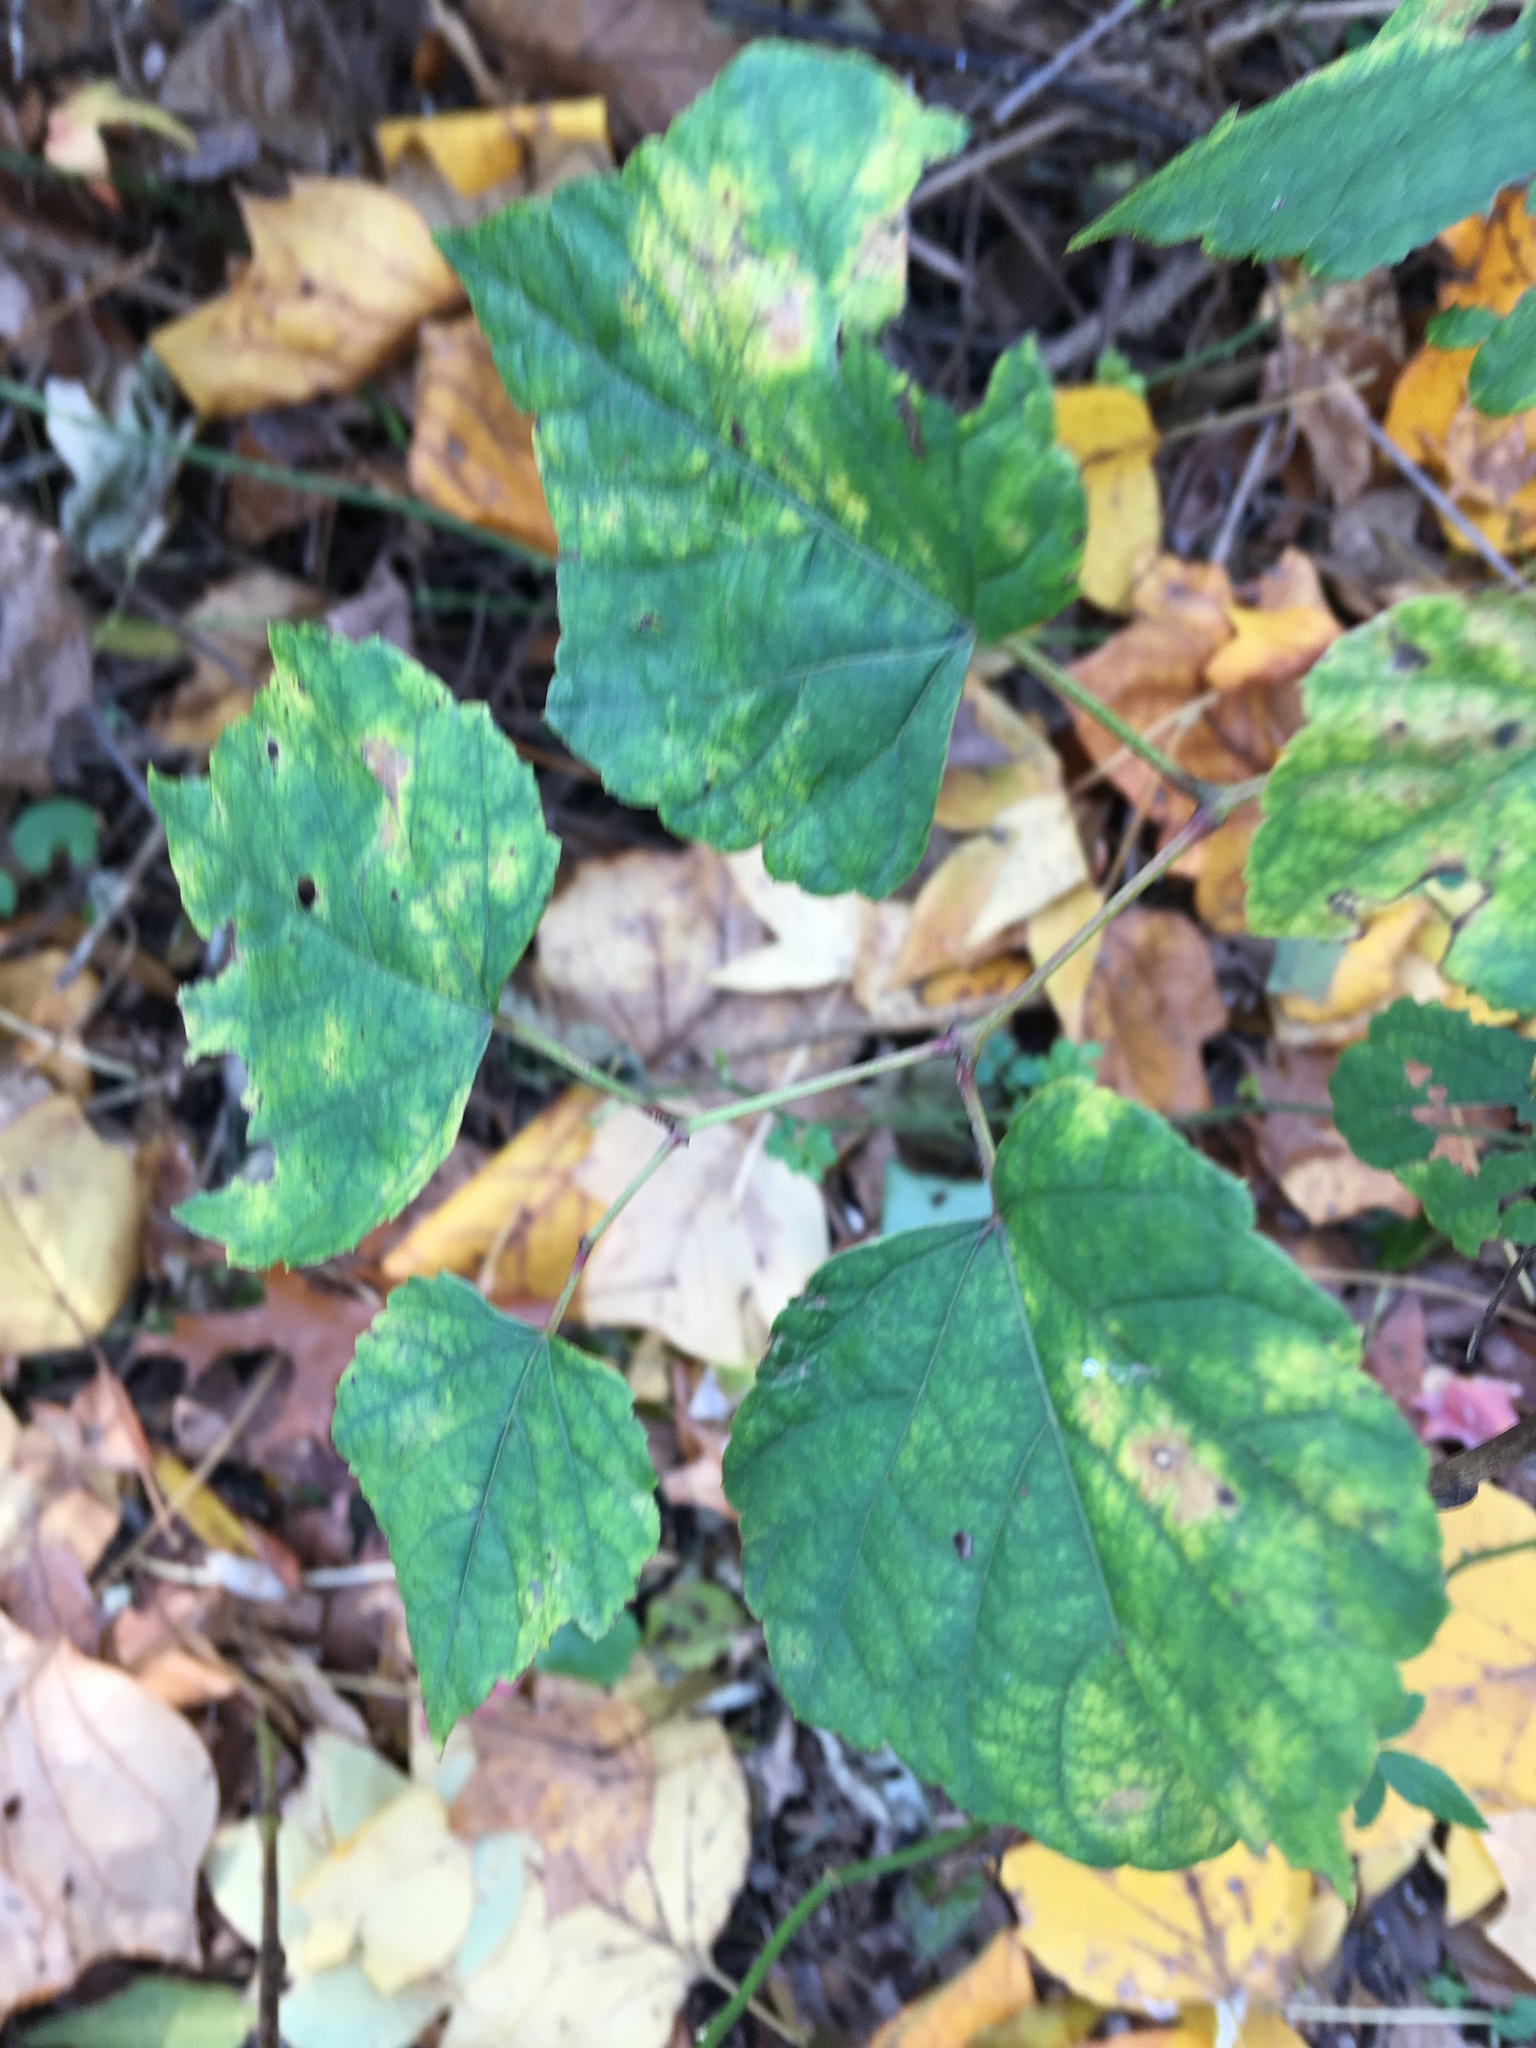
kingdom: Plantae
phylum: Tracheophyta
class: Magnoliopsida
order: Vitales
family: Vitaceae
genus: Ampelopsis
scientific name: Ampelopsis glandulosa
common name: Amur peppervine
